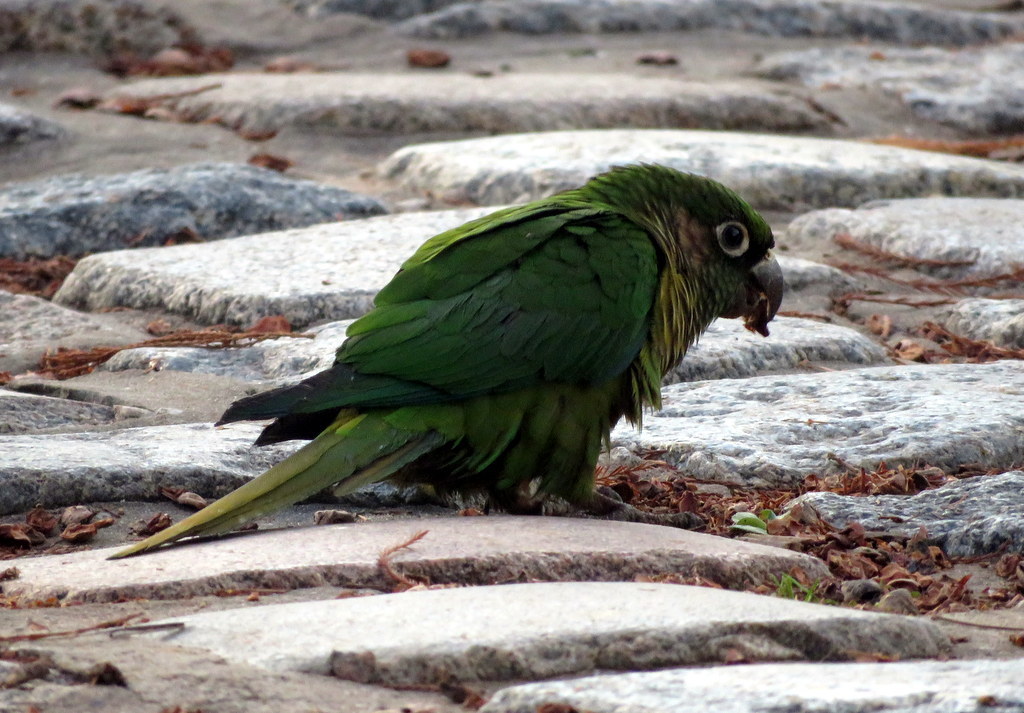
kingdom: Animalia
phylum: Chordata
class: Aves
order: Psittaciformes
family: Psittacidae
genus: Pyrrhura
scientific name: Pyrrhura frontalis
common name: Maroon-bellied parakeet
